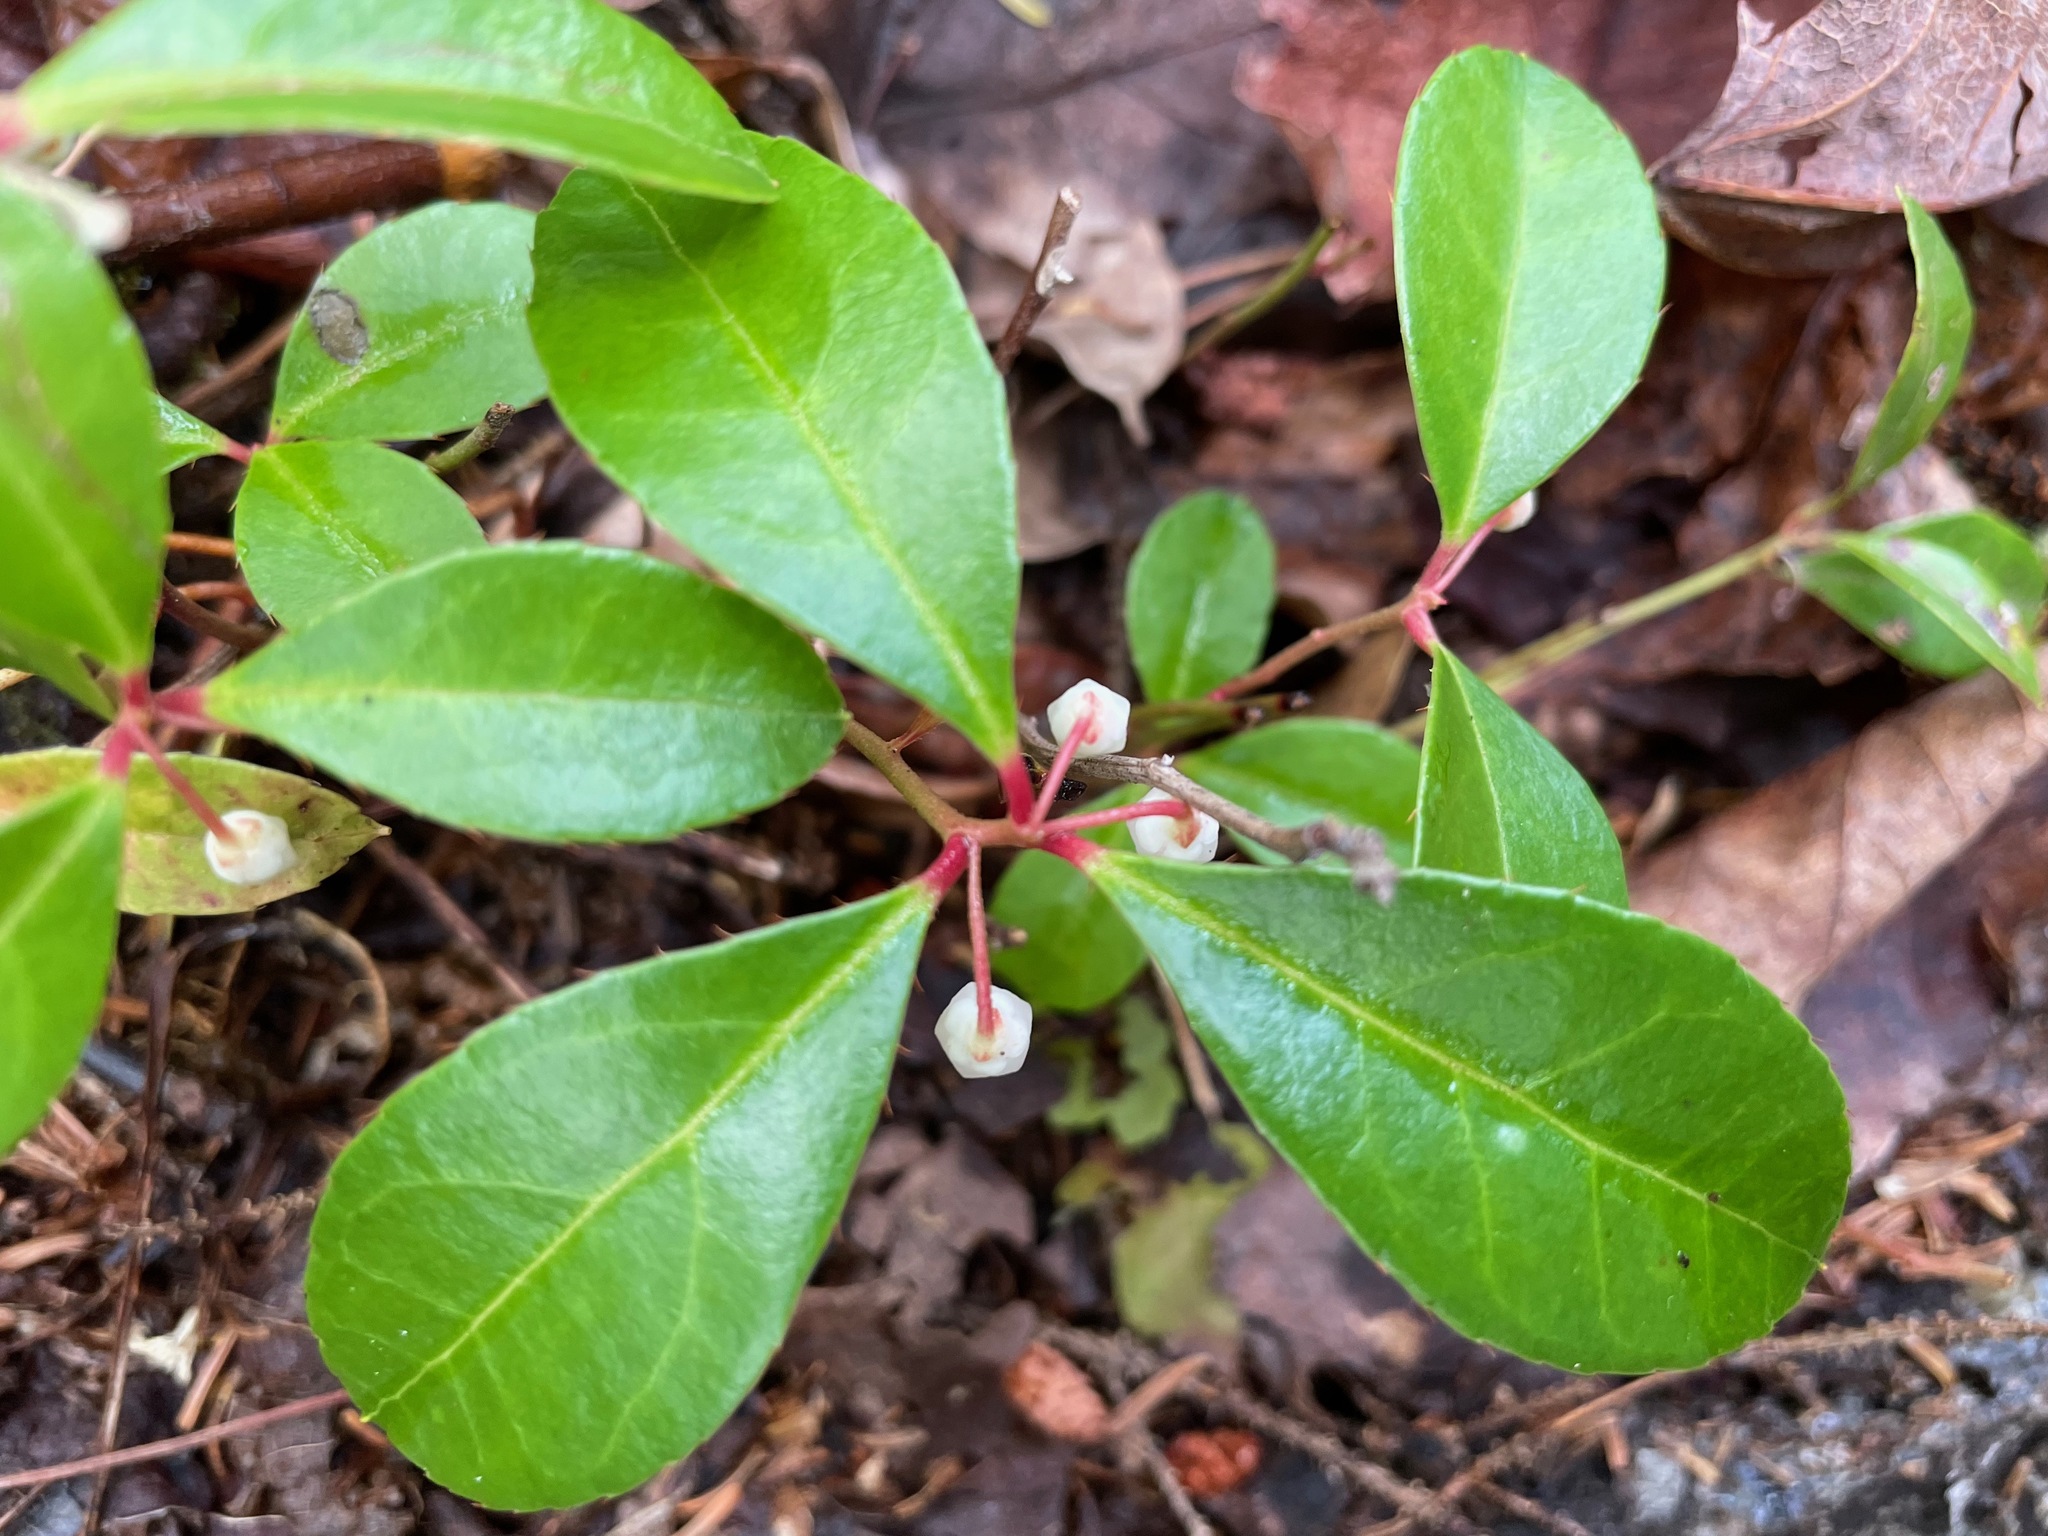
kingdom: Plantae
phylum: Tracheophyta
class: Magnoliopsida
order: Ericales
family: Ericaceae
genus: Gaultheria
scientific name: Gaultheria procumbens
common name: Checkerberry
